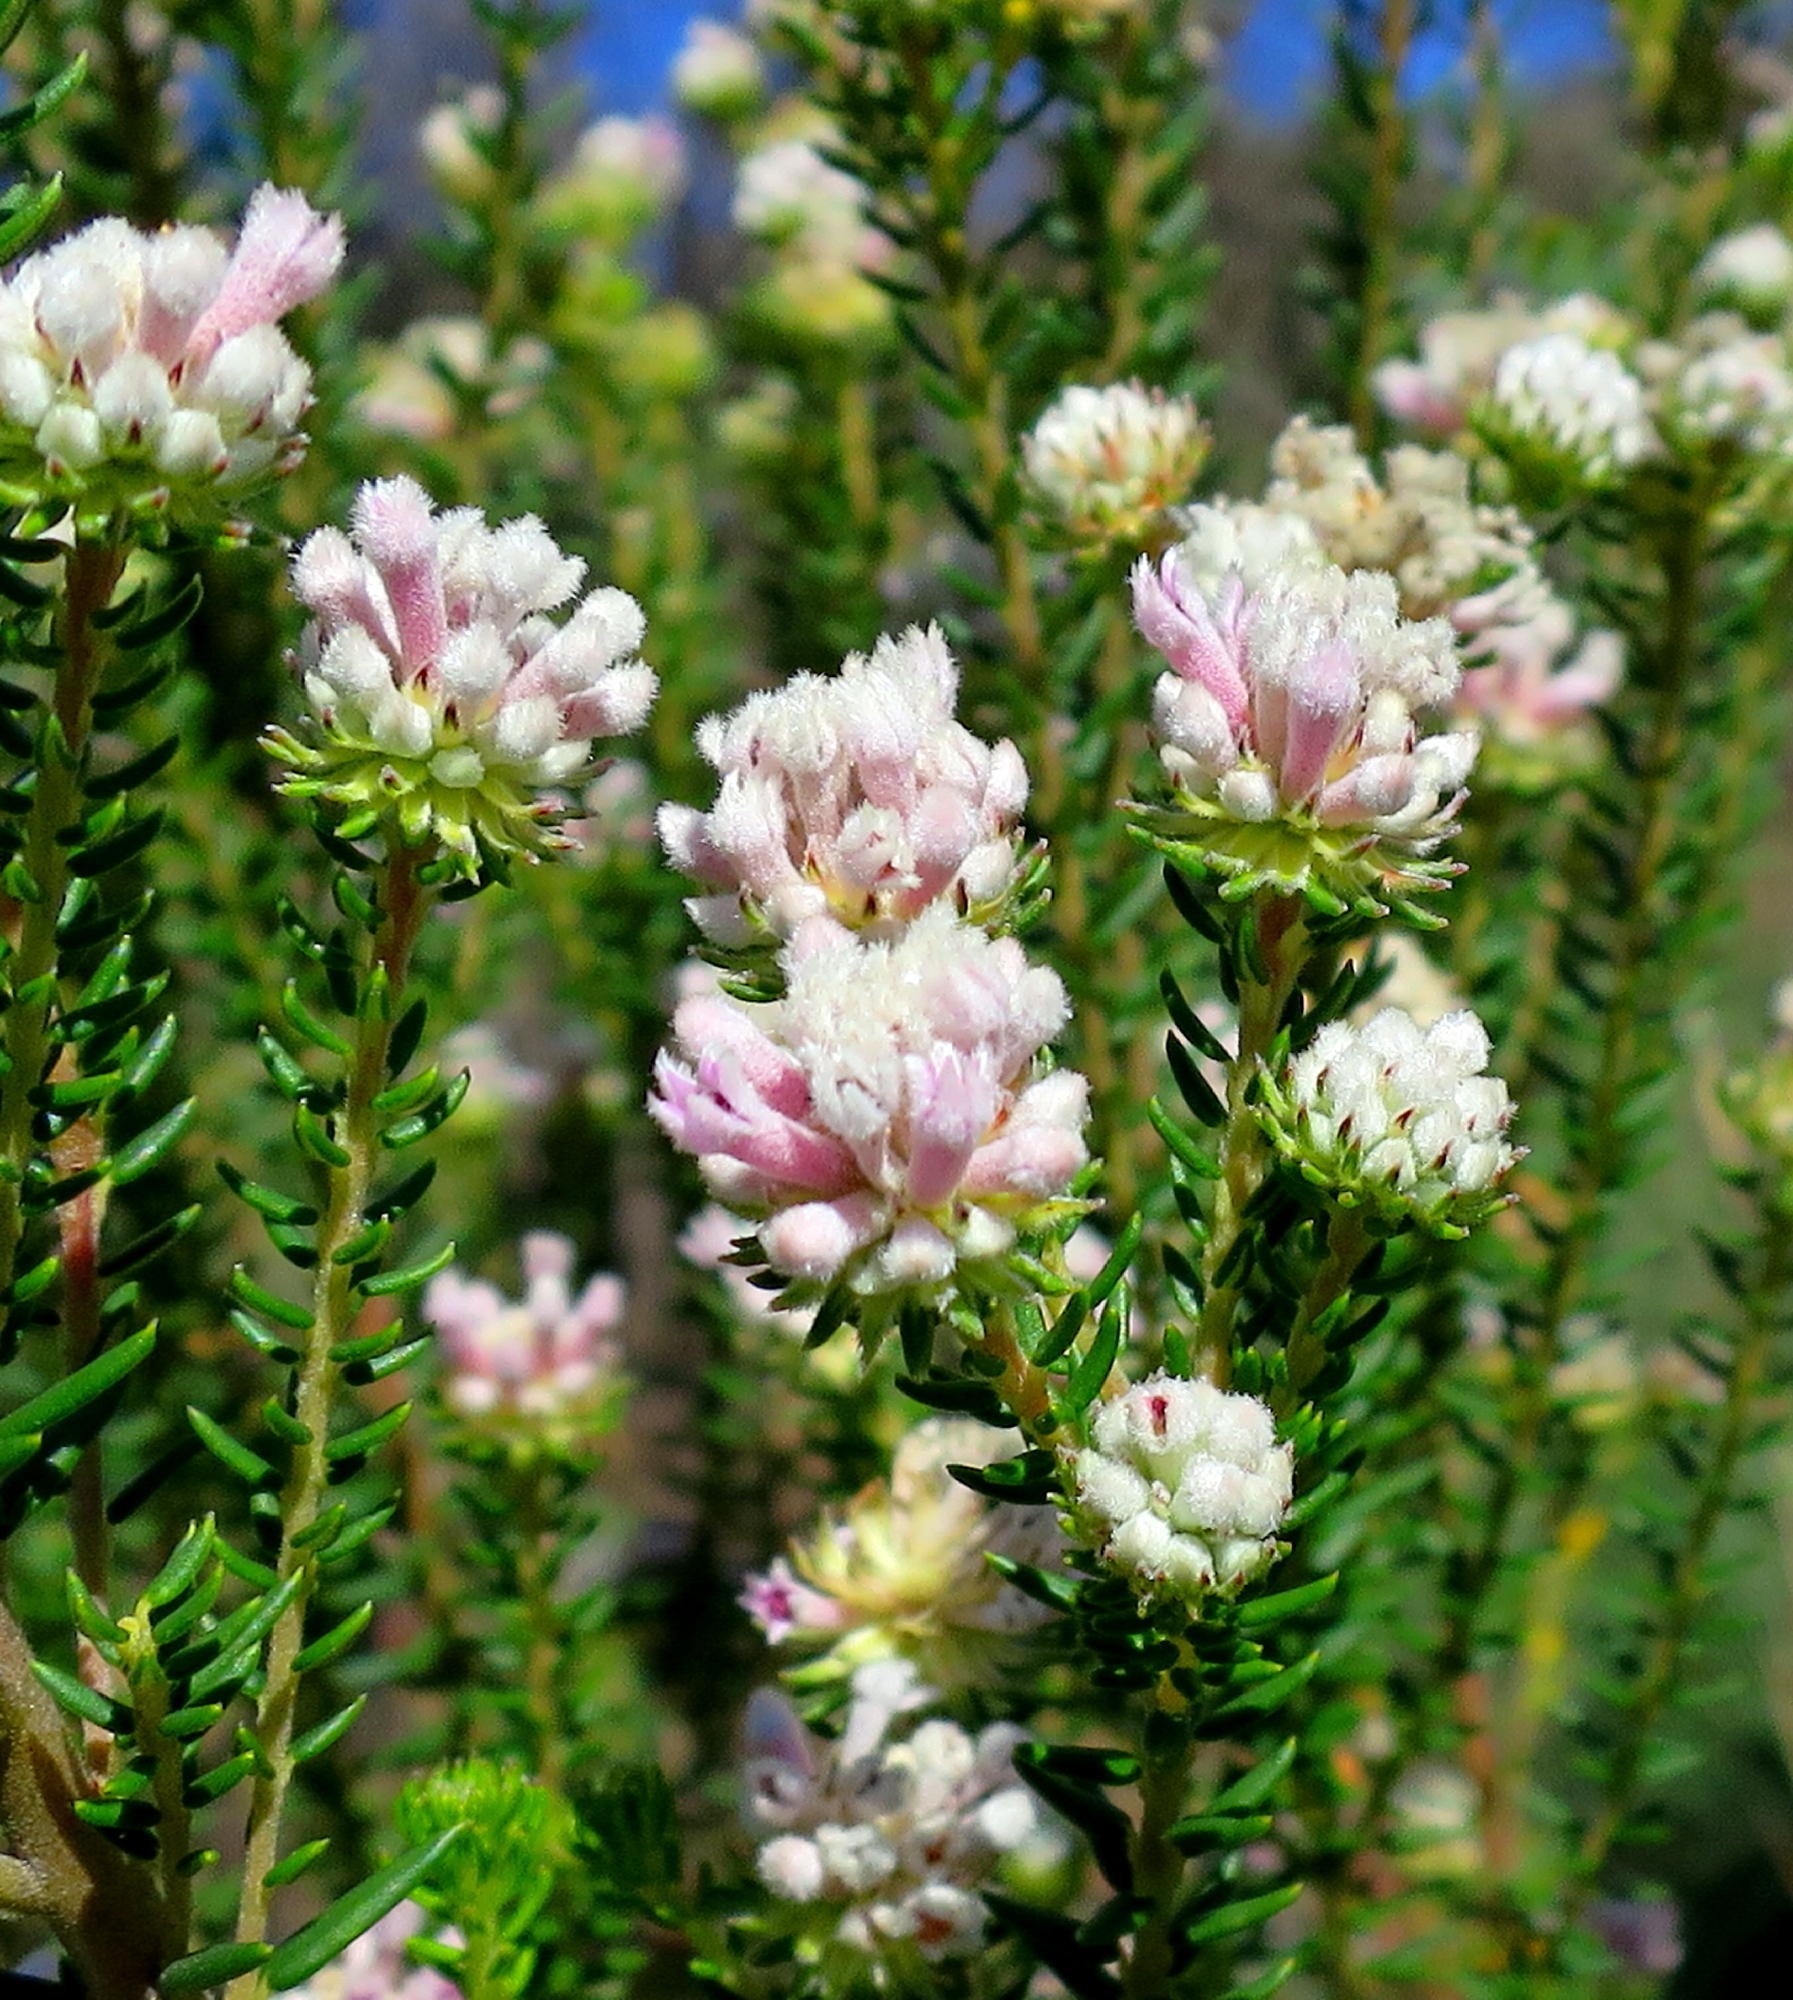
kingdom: Plantae
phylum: Tracheophyta
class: Magnoliopsida
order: Rosales
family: Rhamnaceae
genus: Phylica
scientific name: Phylica lachneaeoides
